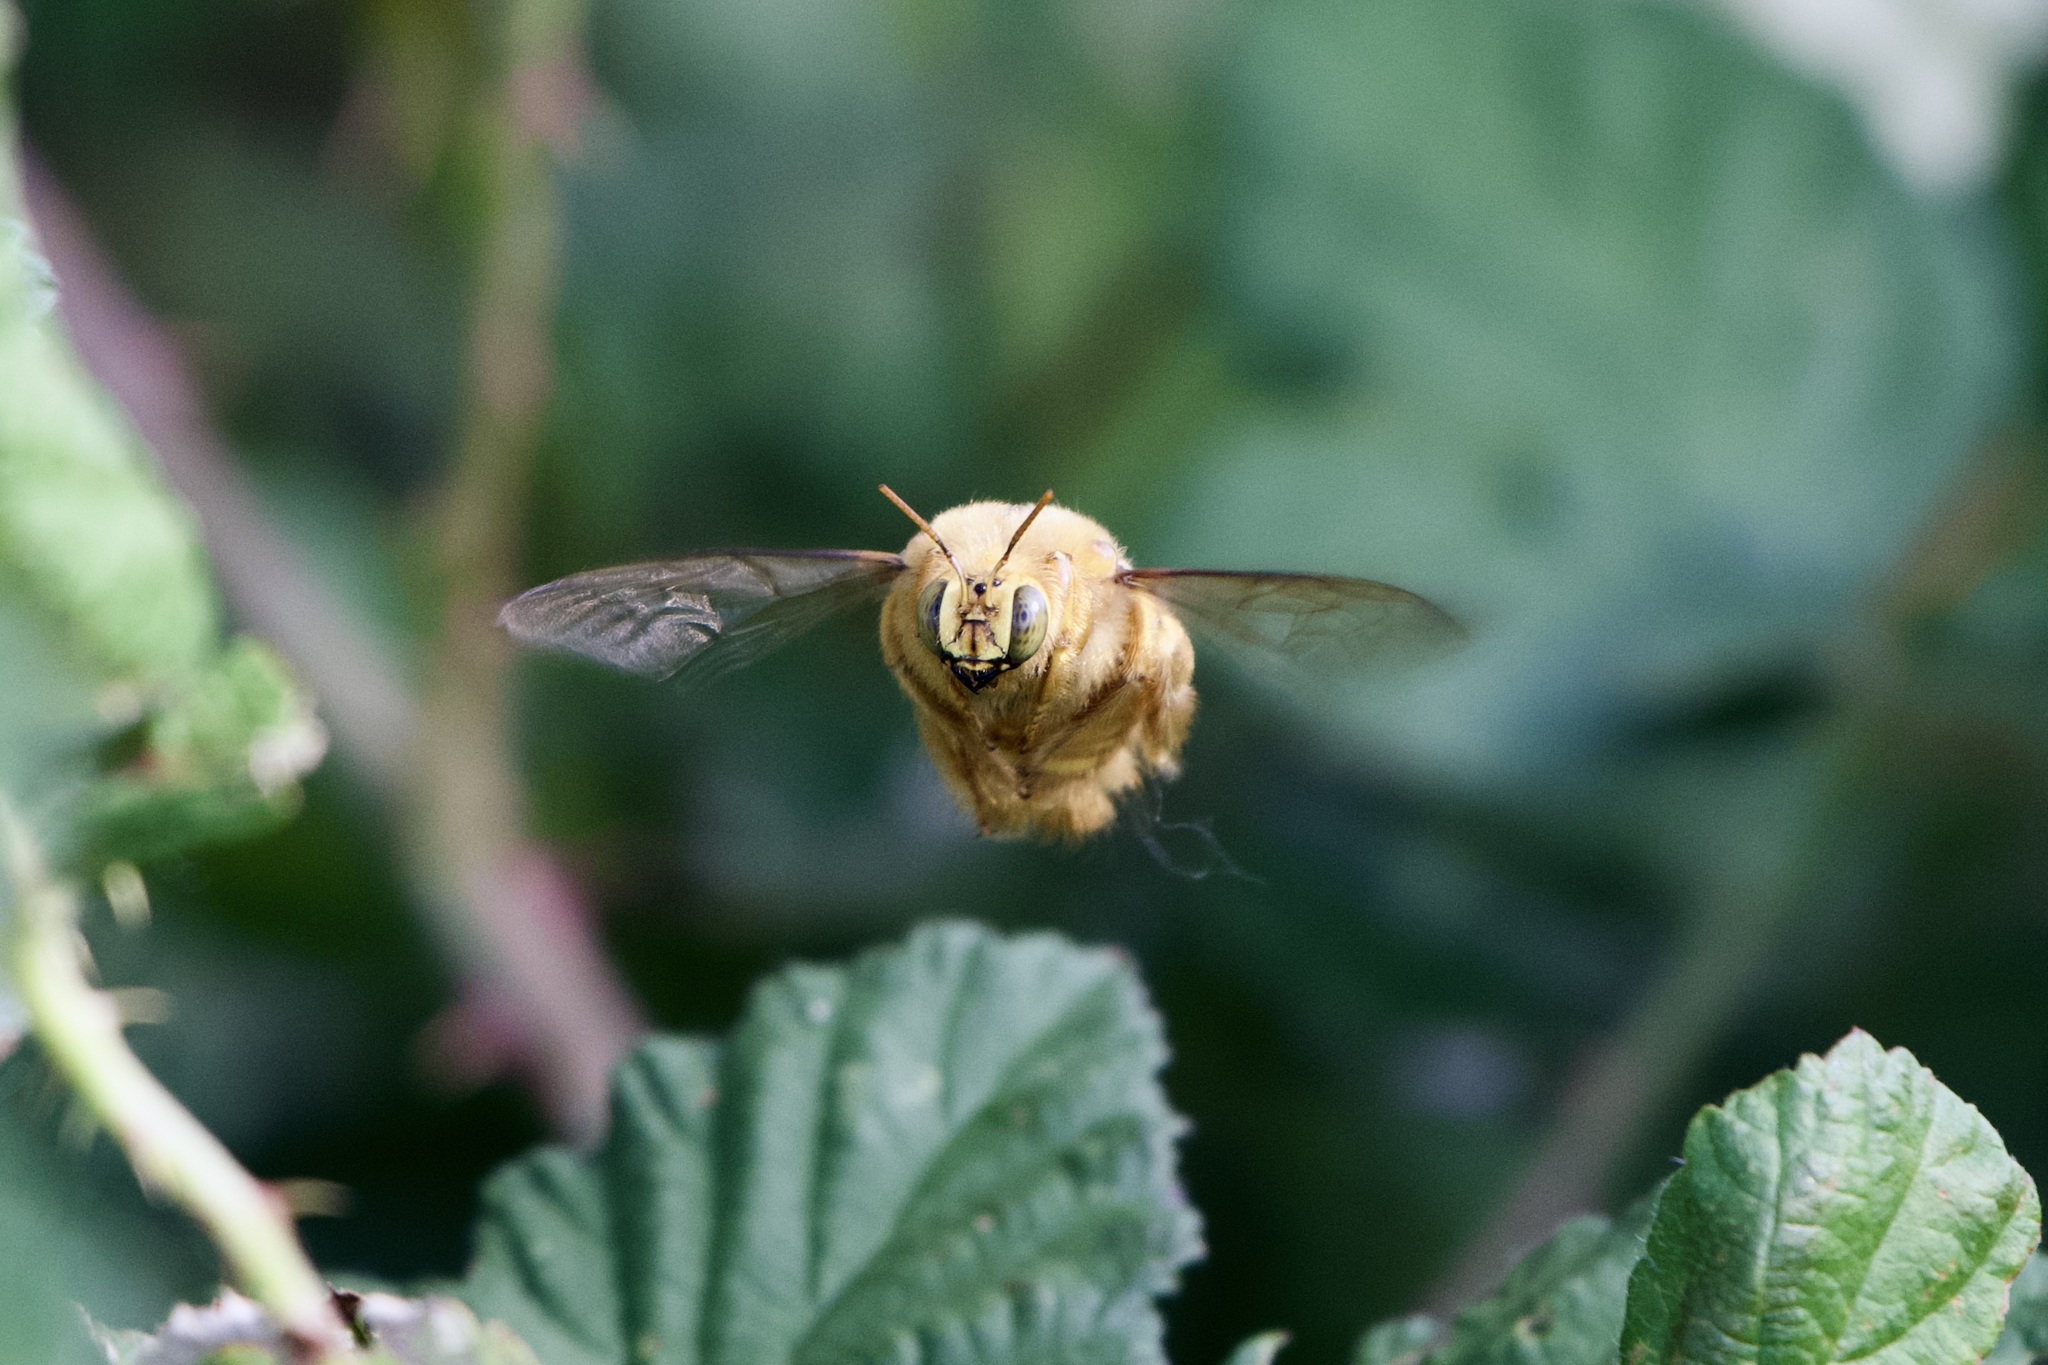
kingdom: Animalia
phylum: Arthropoda
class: Insecta
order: Hymenoptera
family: Apidae
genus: Xylocopa
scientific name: Xylocopa sonorina
